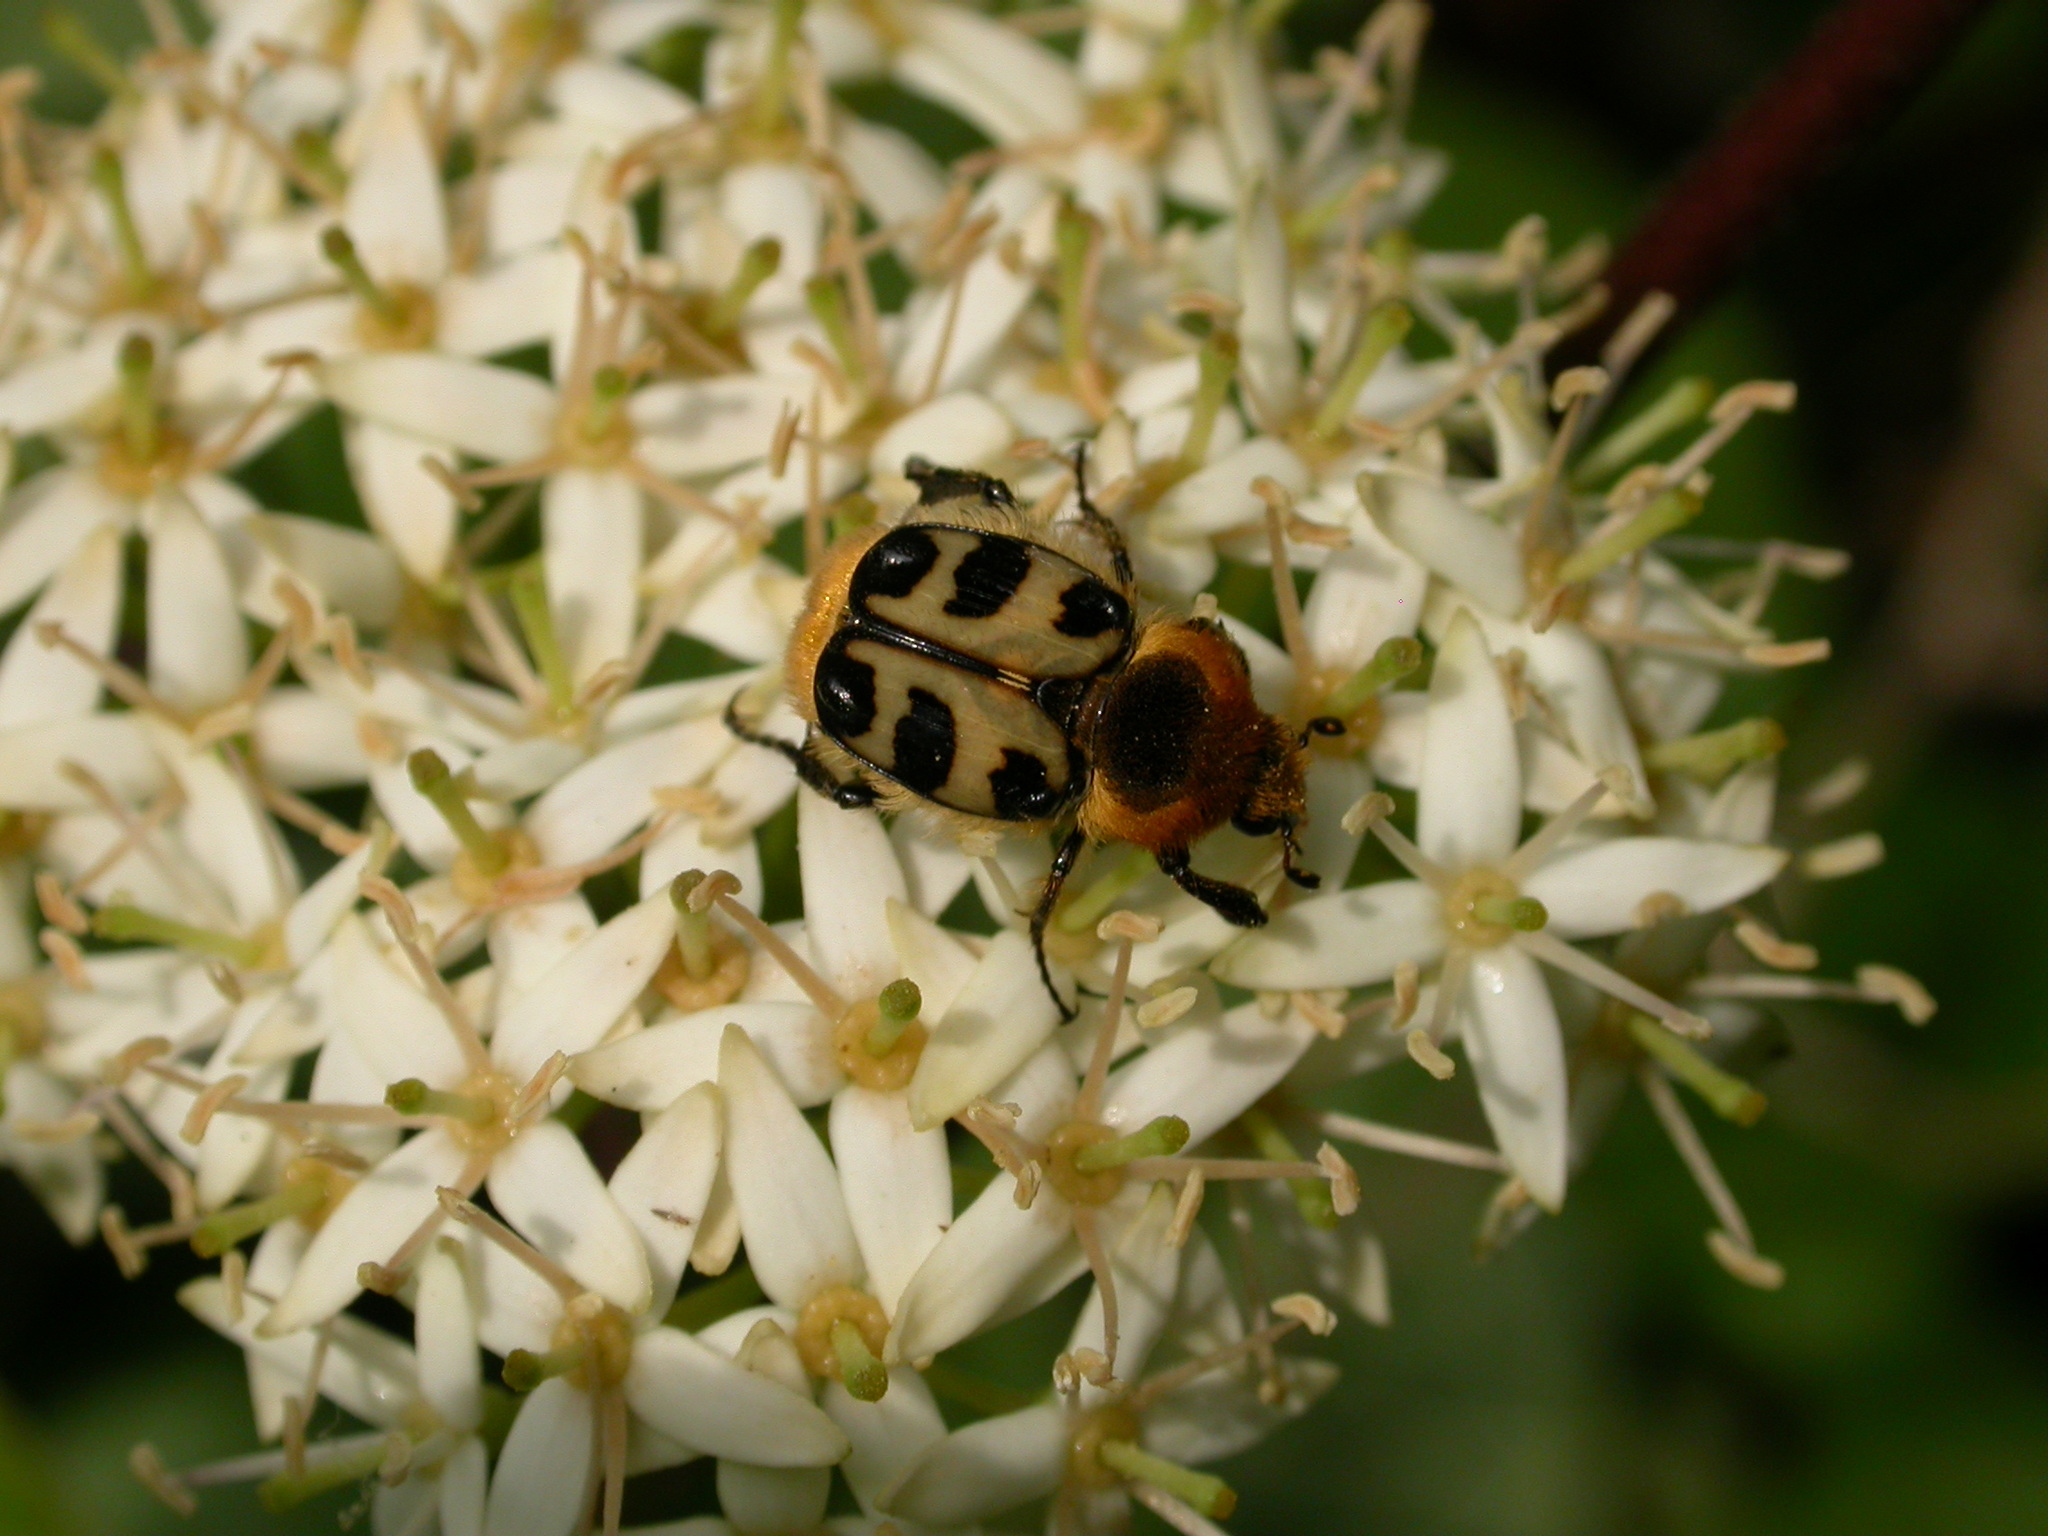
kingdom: Animalia
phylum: Arthropoda
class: Insecta
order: Coleoptera
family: Scarabaeidae
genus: Trichius
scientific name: Trichius gallicus
